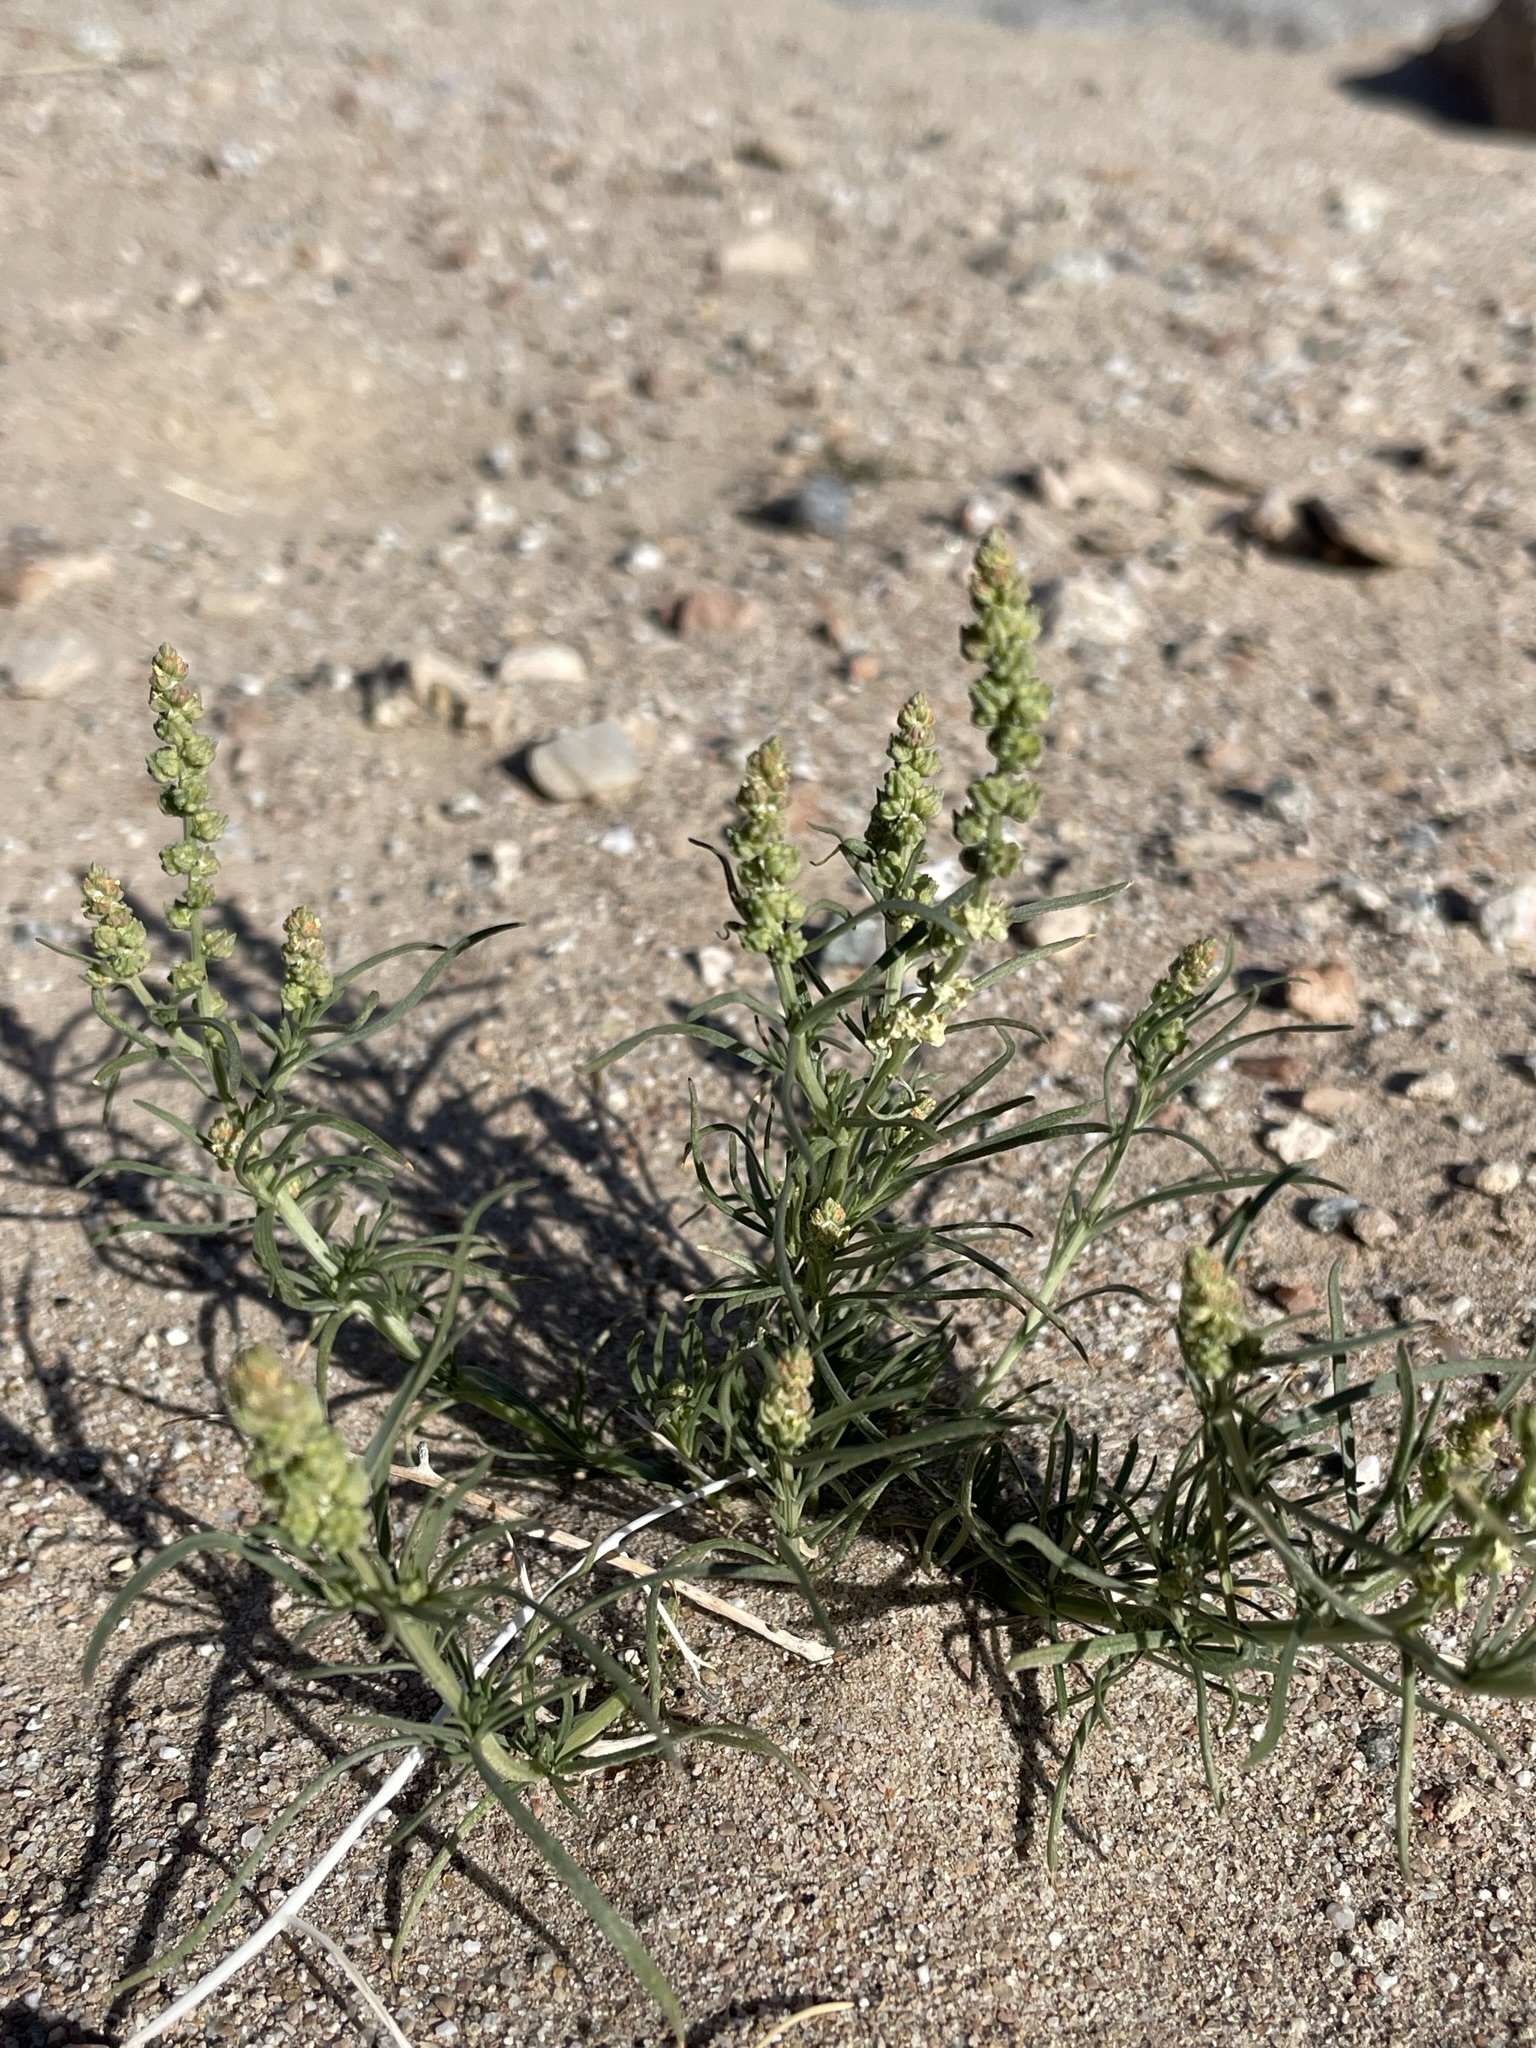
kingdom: Plantae
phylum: Tracheophyta
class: Magnoliopsida
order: Brassicales
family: Resedaceae
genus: Oligomeris
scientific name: Oligomeris linifolia
